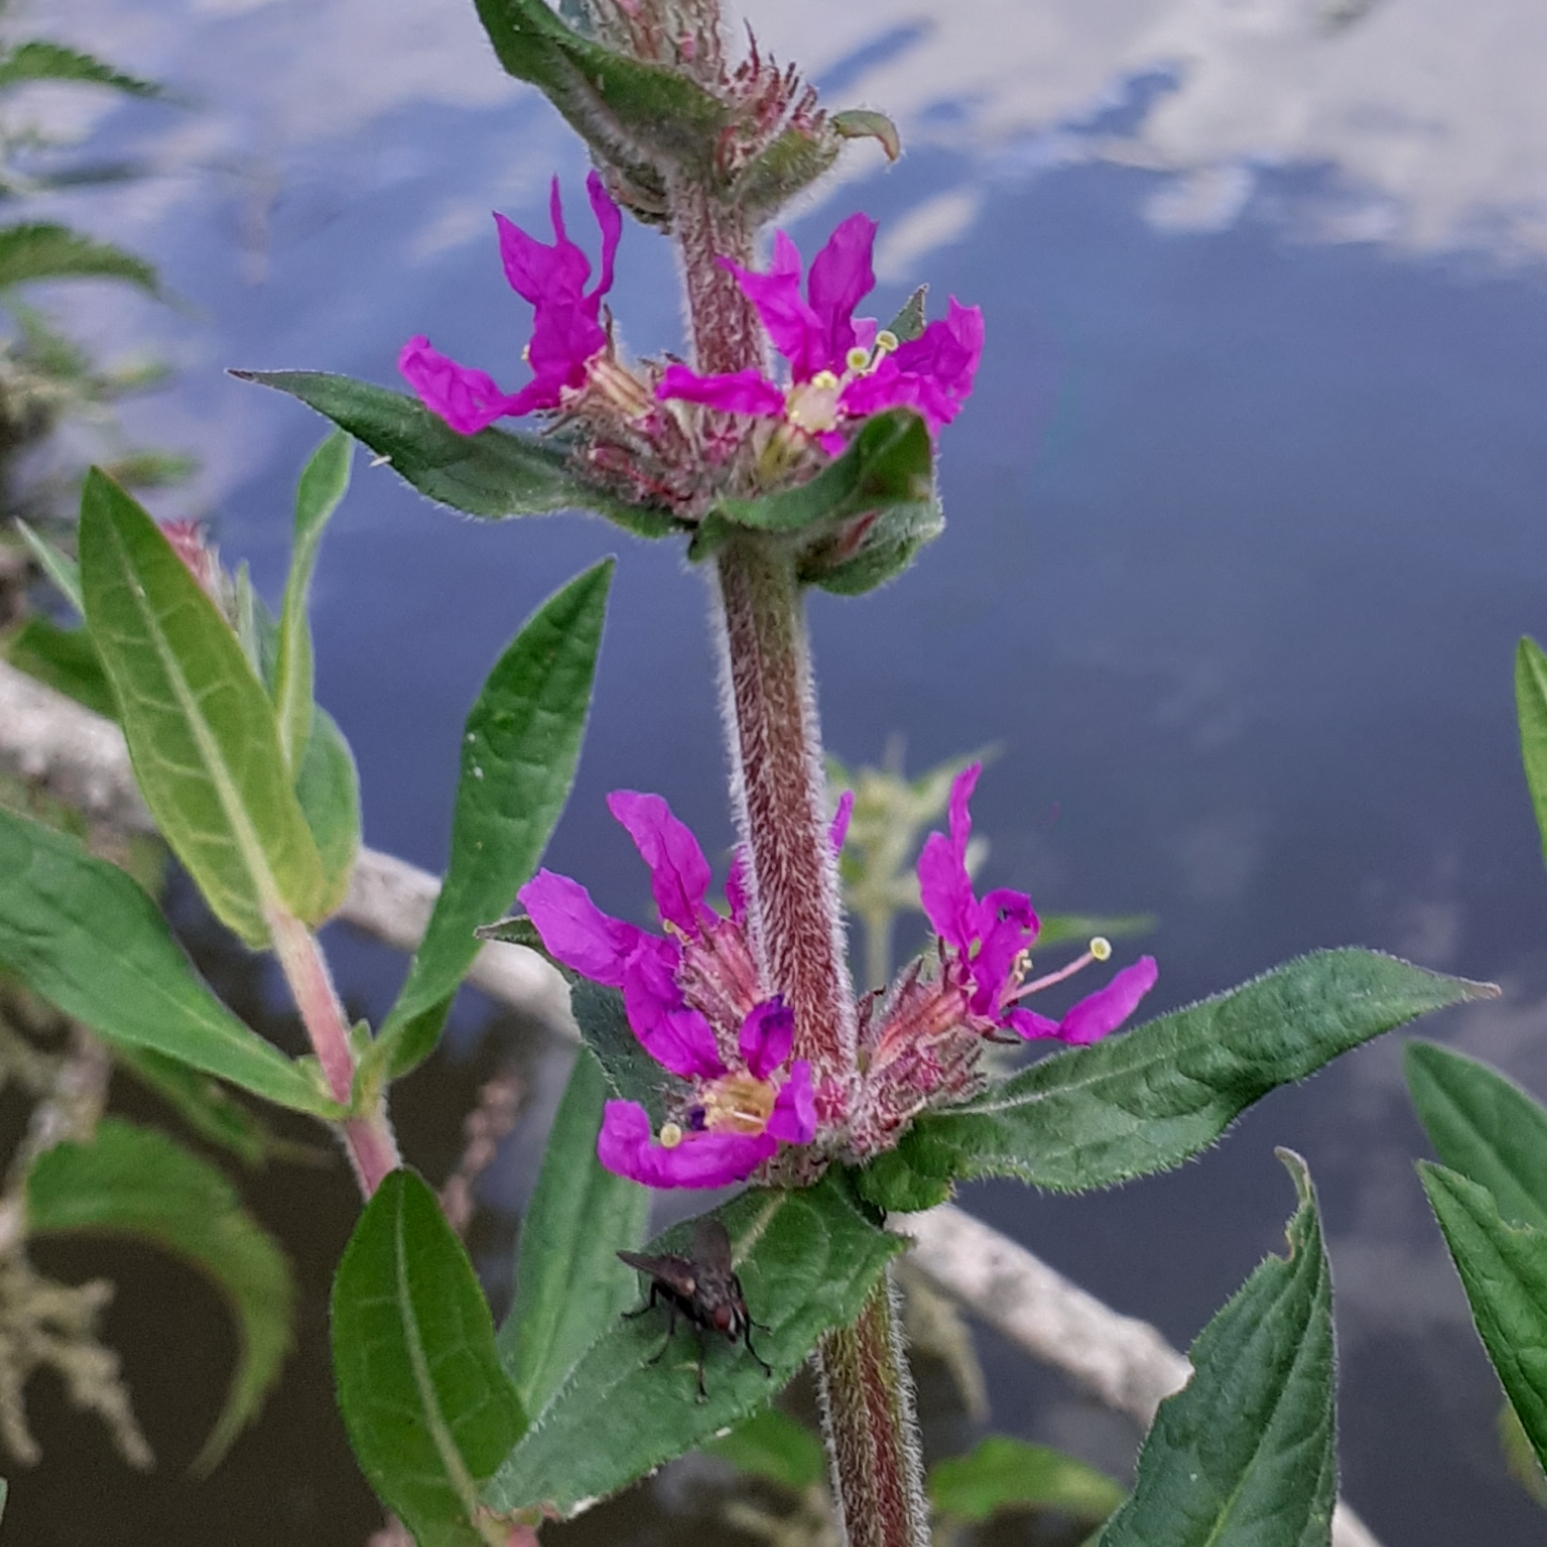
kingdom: Plantae
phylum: Tracheophyta
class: Magnoliopsida
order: Myrtales
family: Lythraceae
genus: Lythrum
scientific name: Lythrum salicaria
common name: Purple loosestrife
